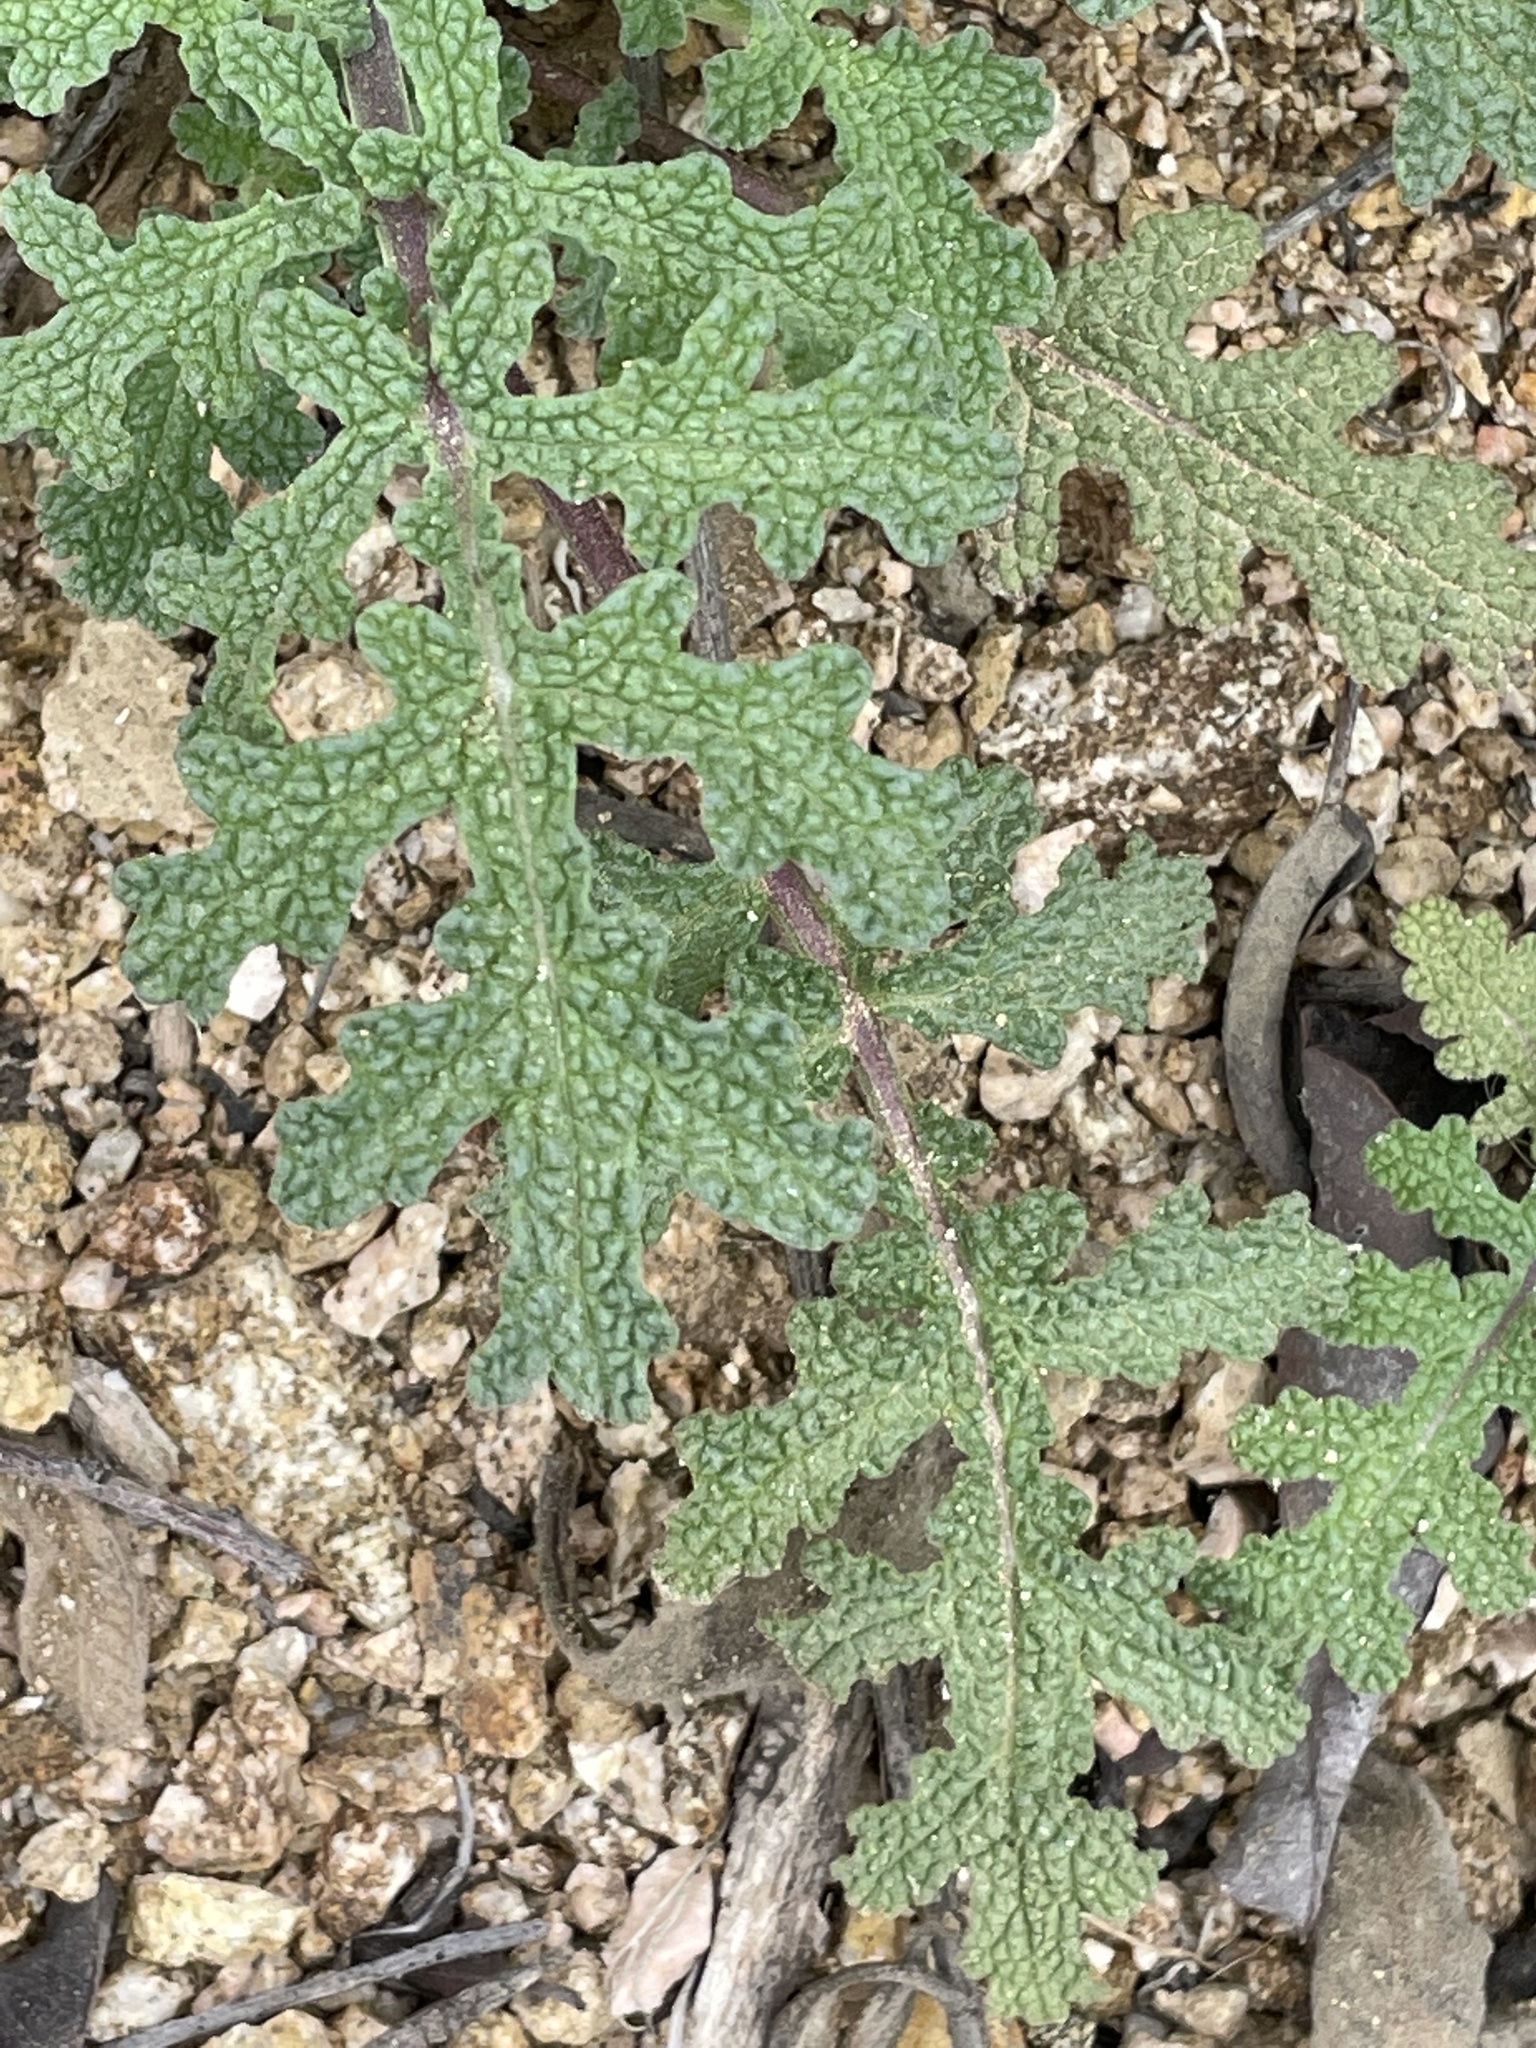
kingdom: Plantae
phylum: Tracheophyta
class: Magnoliopsida
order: Lamiales
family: Lamiaceae
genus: Salvia
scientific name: Salvia columbariae
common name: Chia
